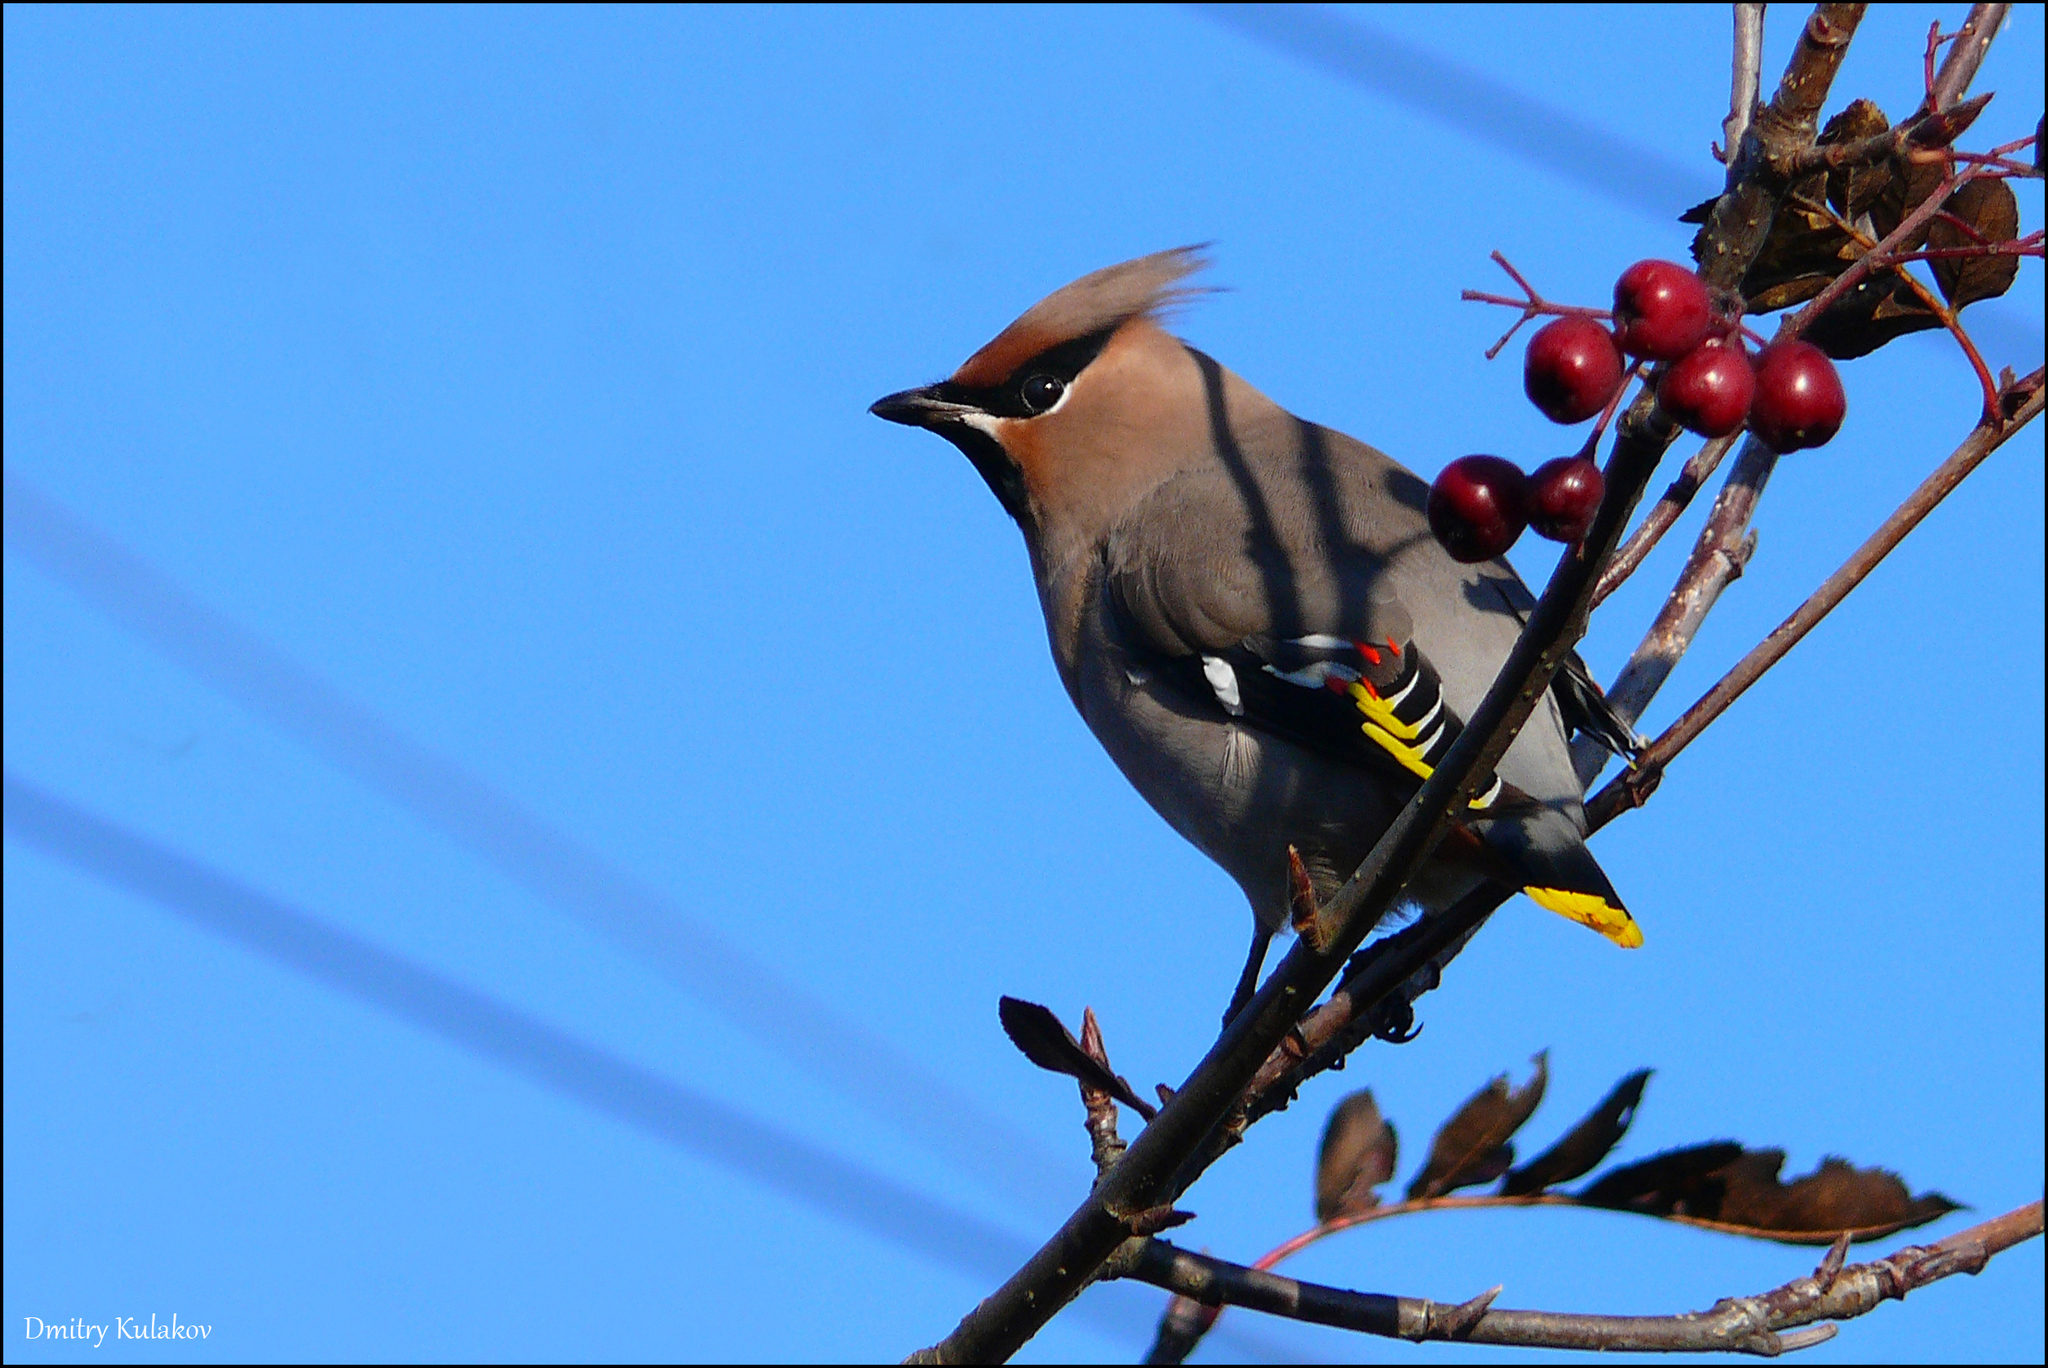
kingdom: Animalia
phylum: Chordata
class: Aves
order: Passeriformes
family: Bombycillidae
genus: Bombycilla
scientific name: Bombycilla garrulus
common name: Bohemian waxwing
